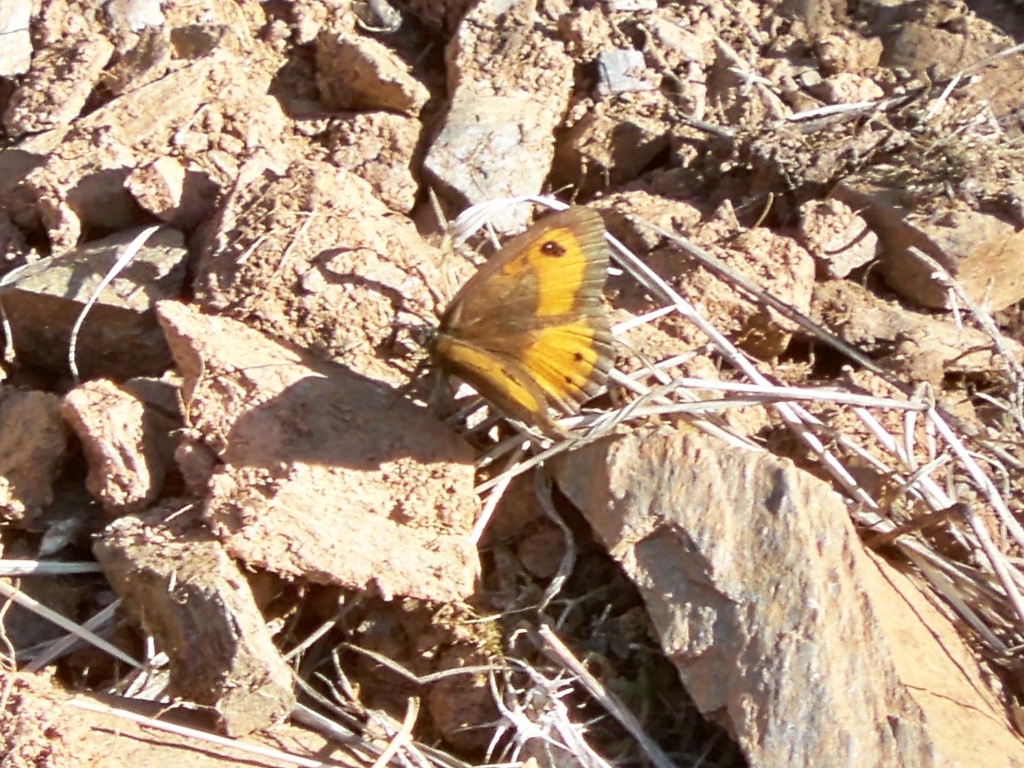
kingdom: Animalia
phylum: Arthropoda
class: Insecta
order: Lepidoptera
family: Nymphalidae
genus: Pyronia
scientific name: Pyronia bathseba
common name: Spanish gatekeeper
